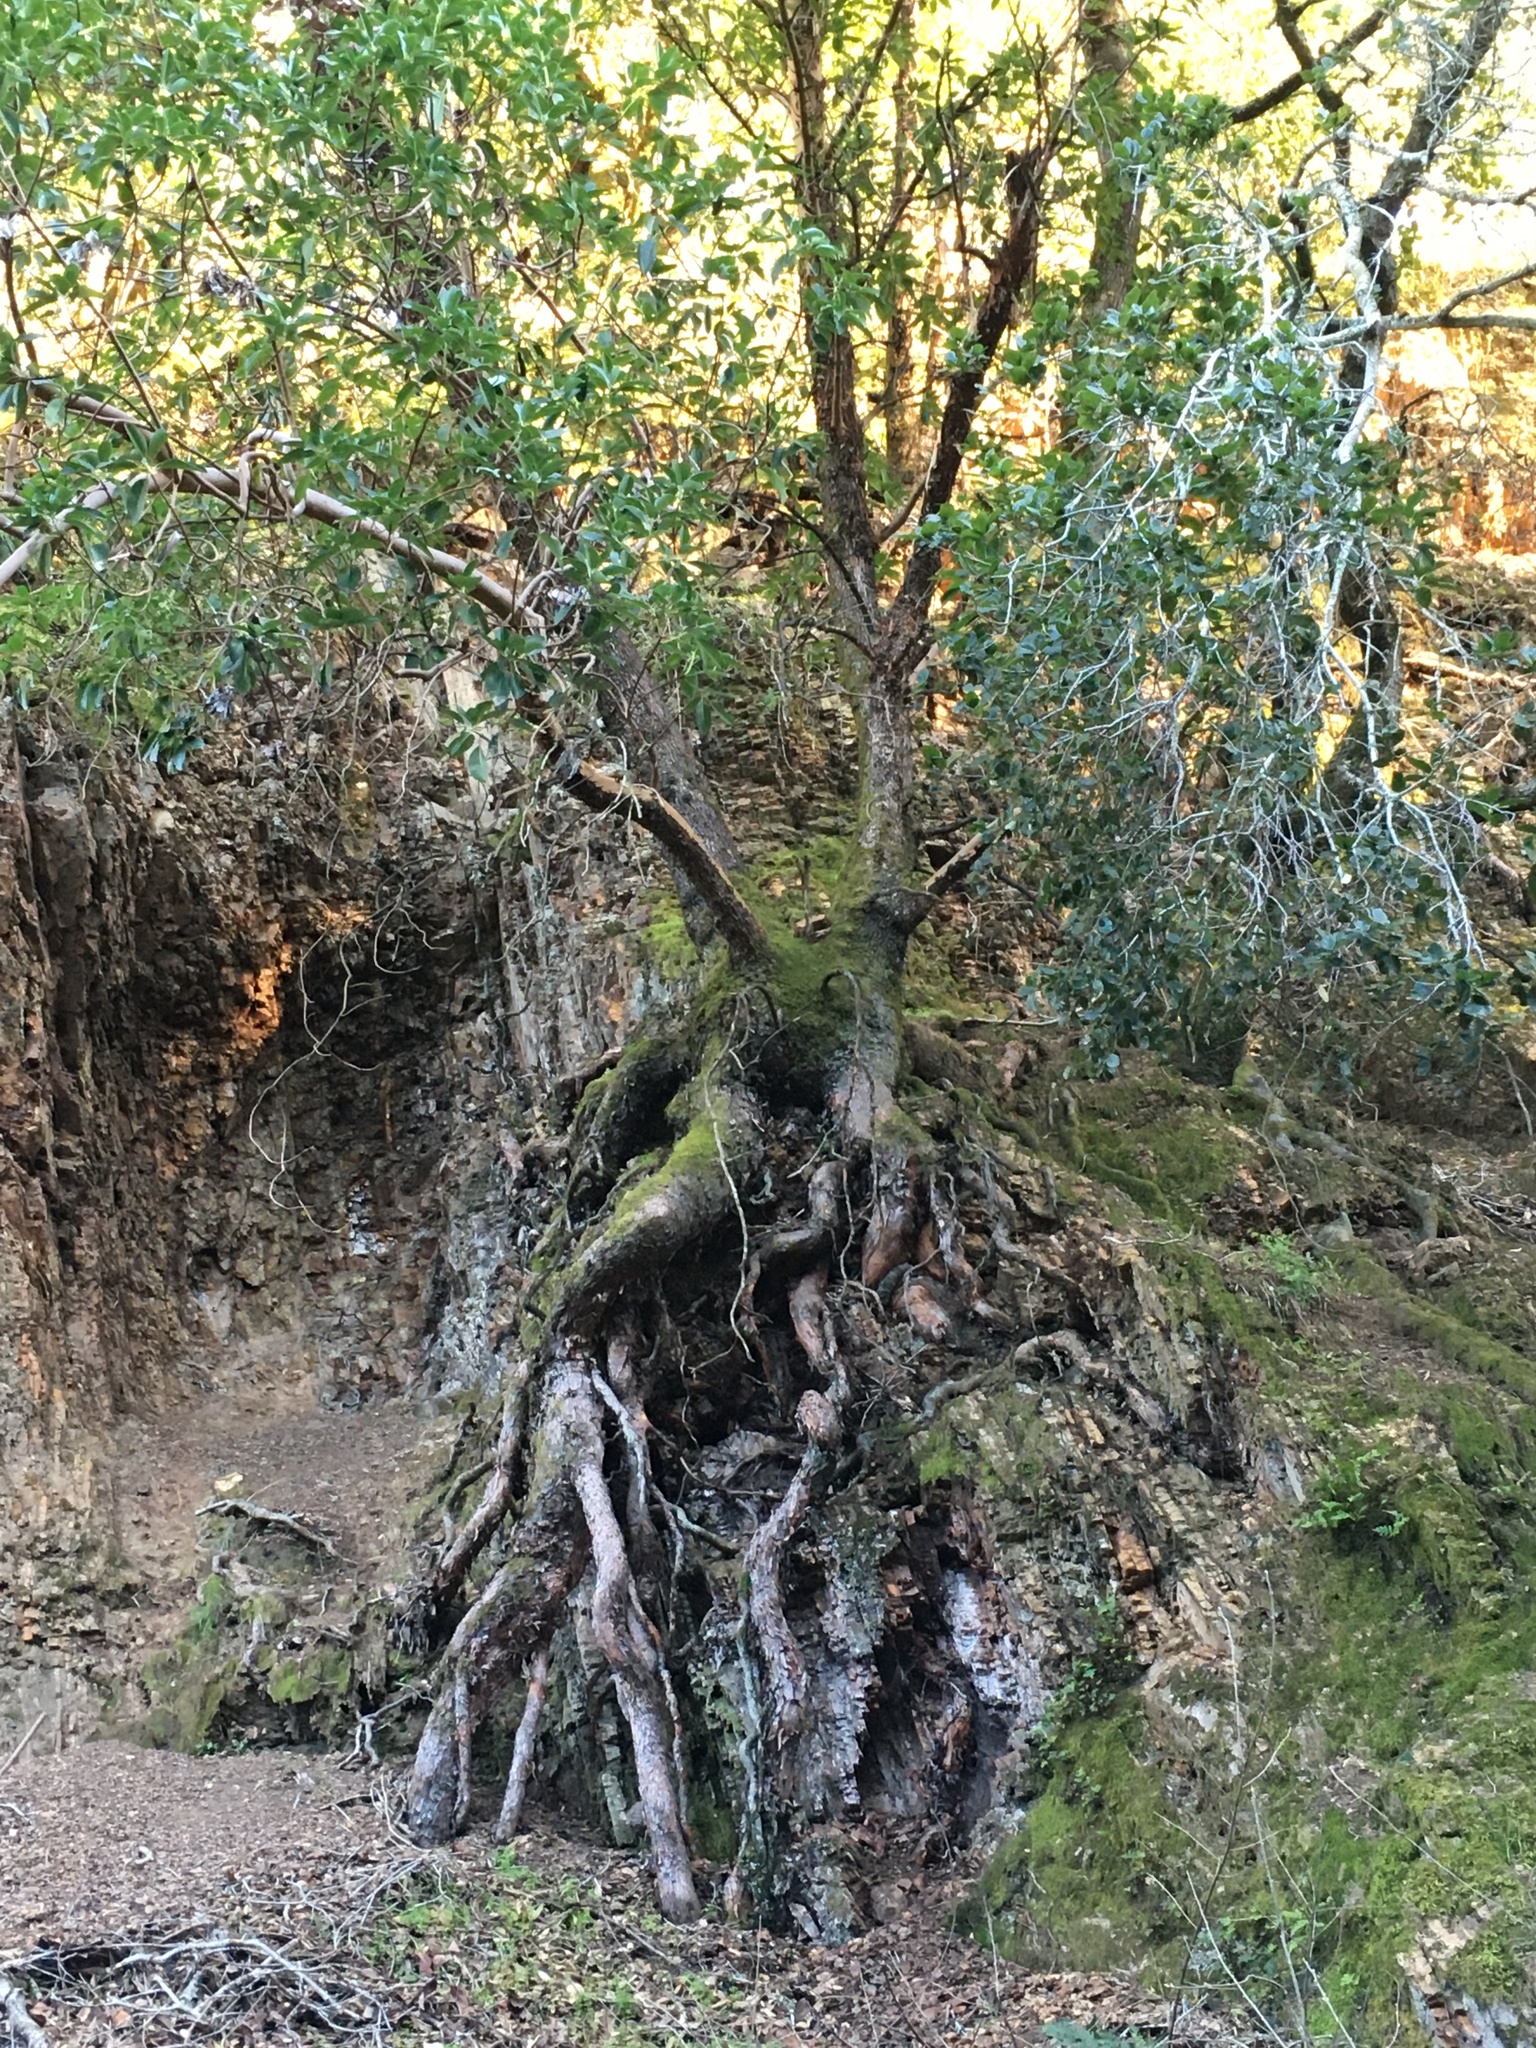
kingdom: Plantae
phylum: Tracheophyta
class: Magnoliopsida
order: Ericales
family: Ericaceae
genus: Arbutus
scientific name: Arbutus menziesii
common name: Pacific madrone
